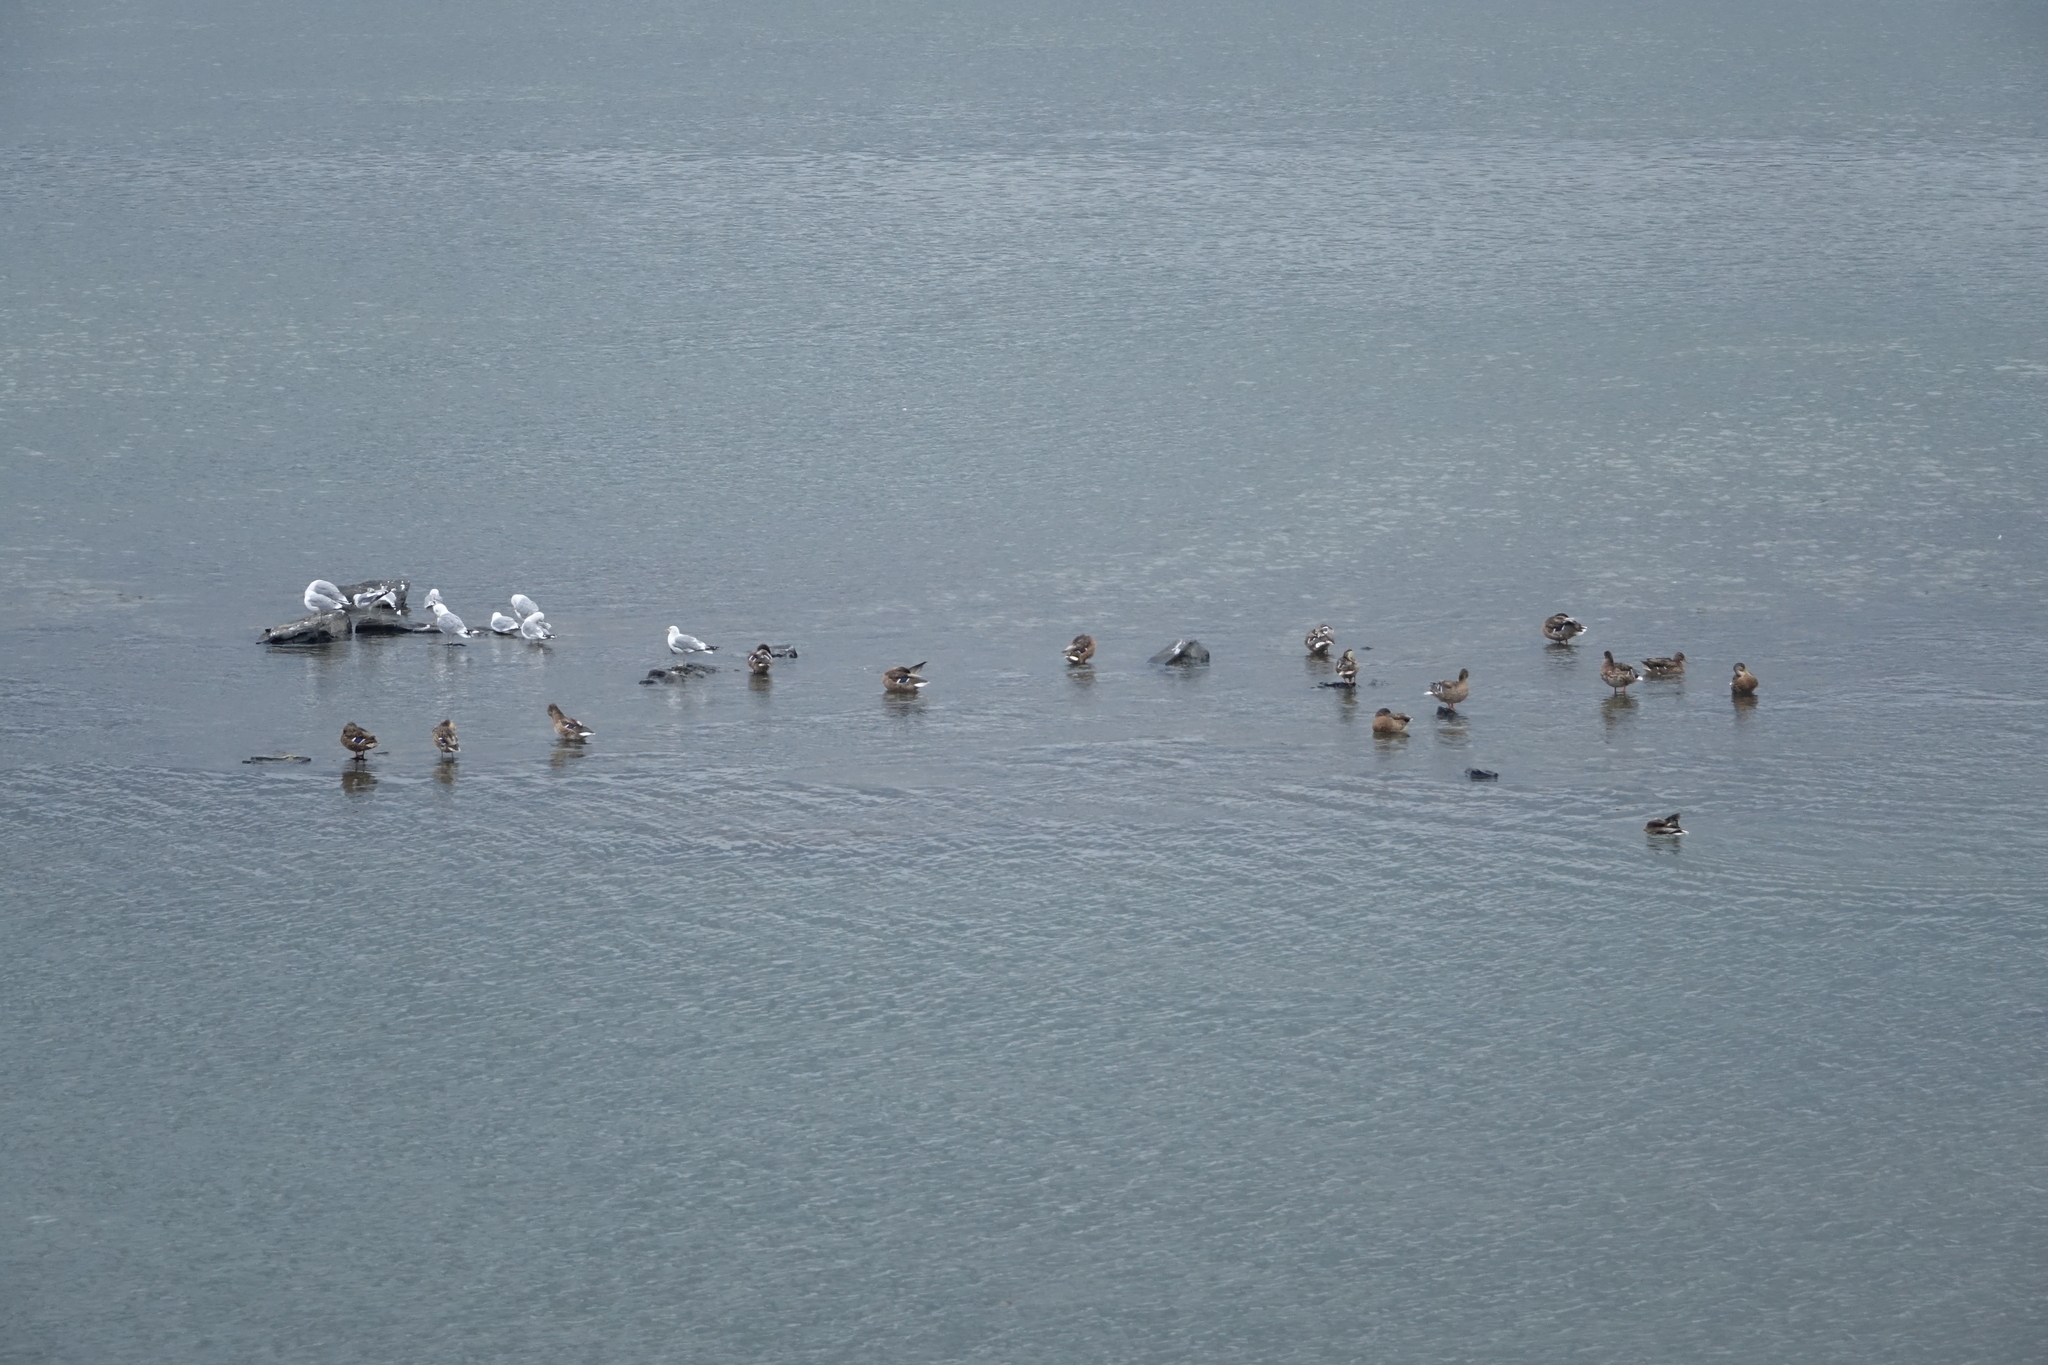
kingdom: Animalia
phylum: Chordata
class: Aves
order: Anseriformes
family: Anatidae
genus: Anas
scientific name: Anas platyrhynchos
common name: Mallard
